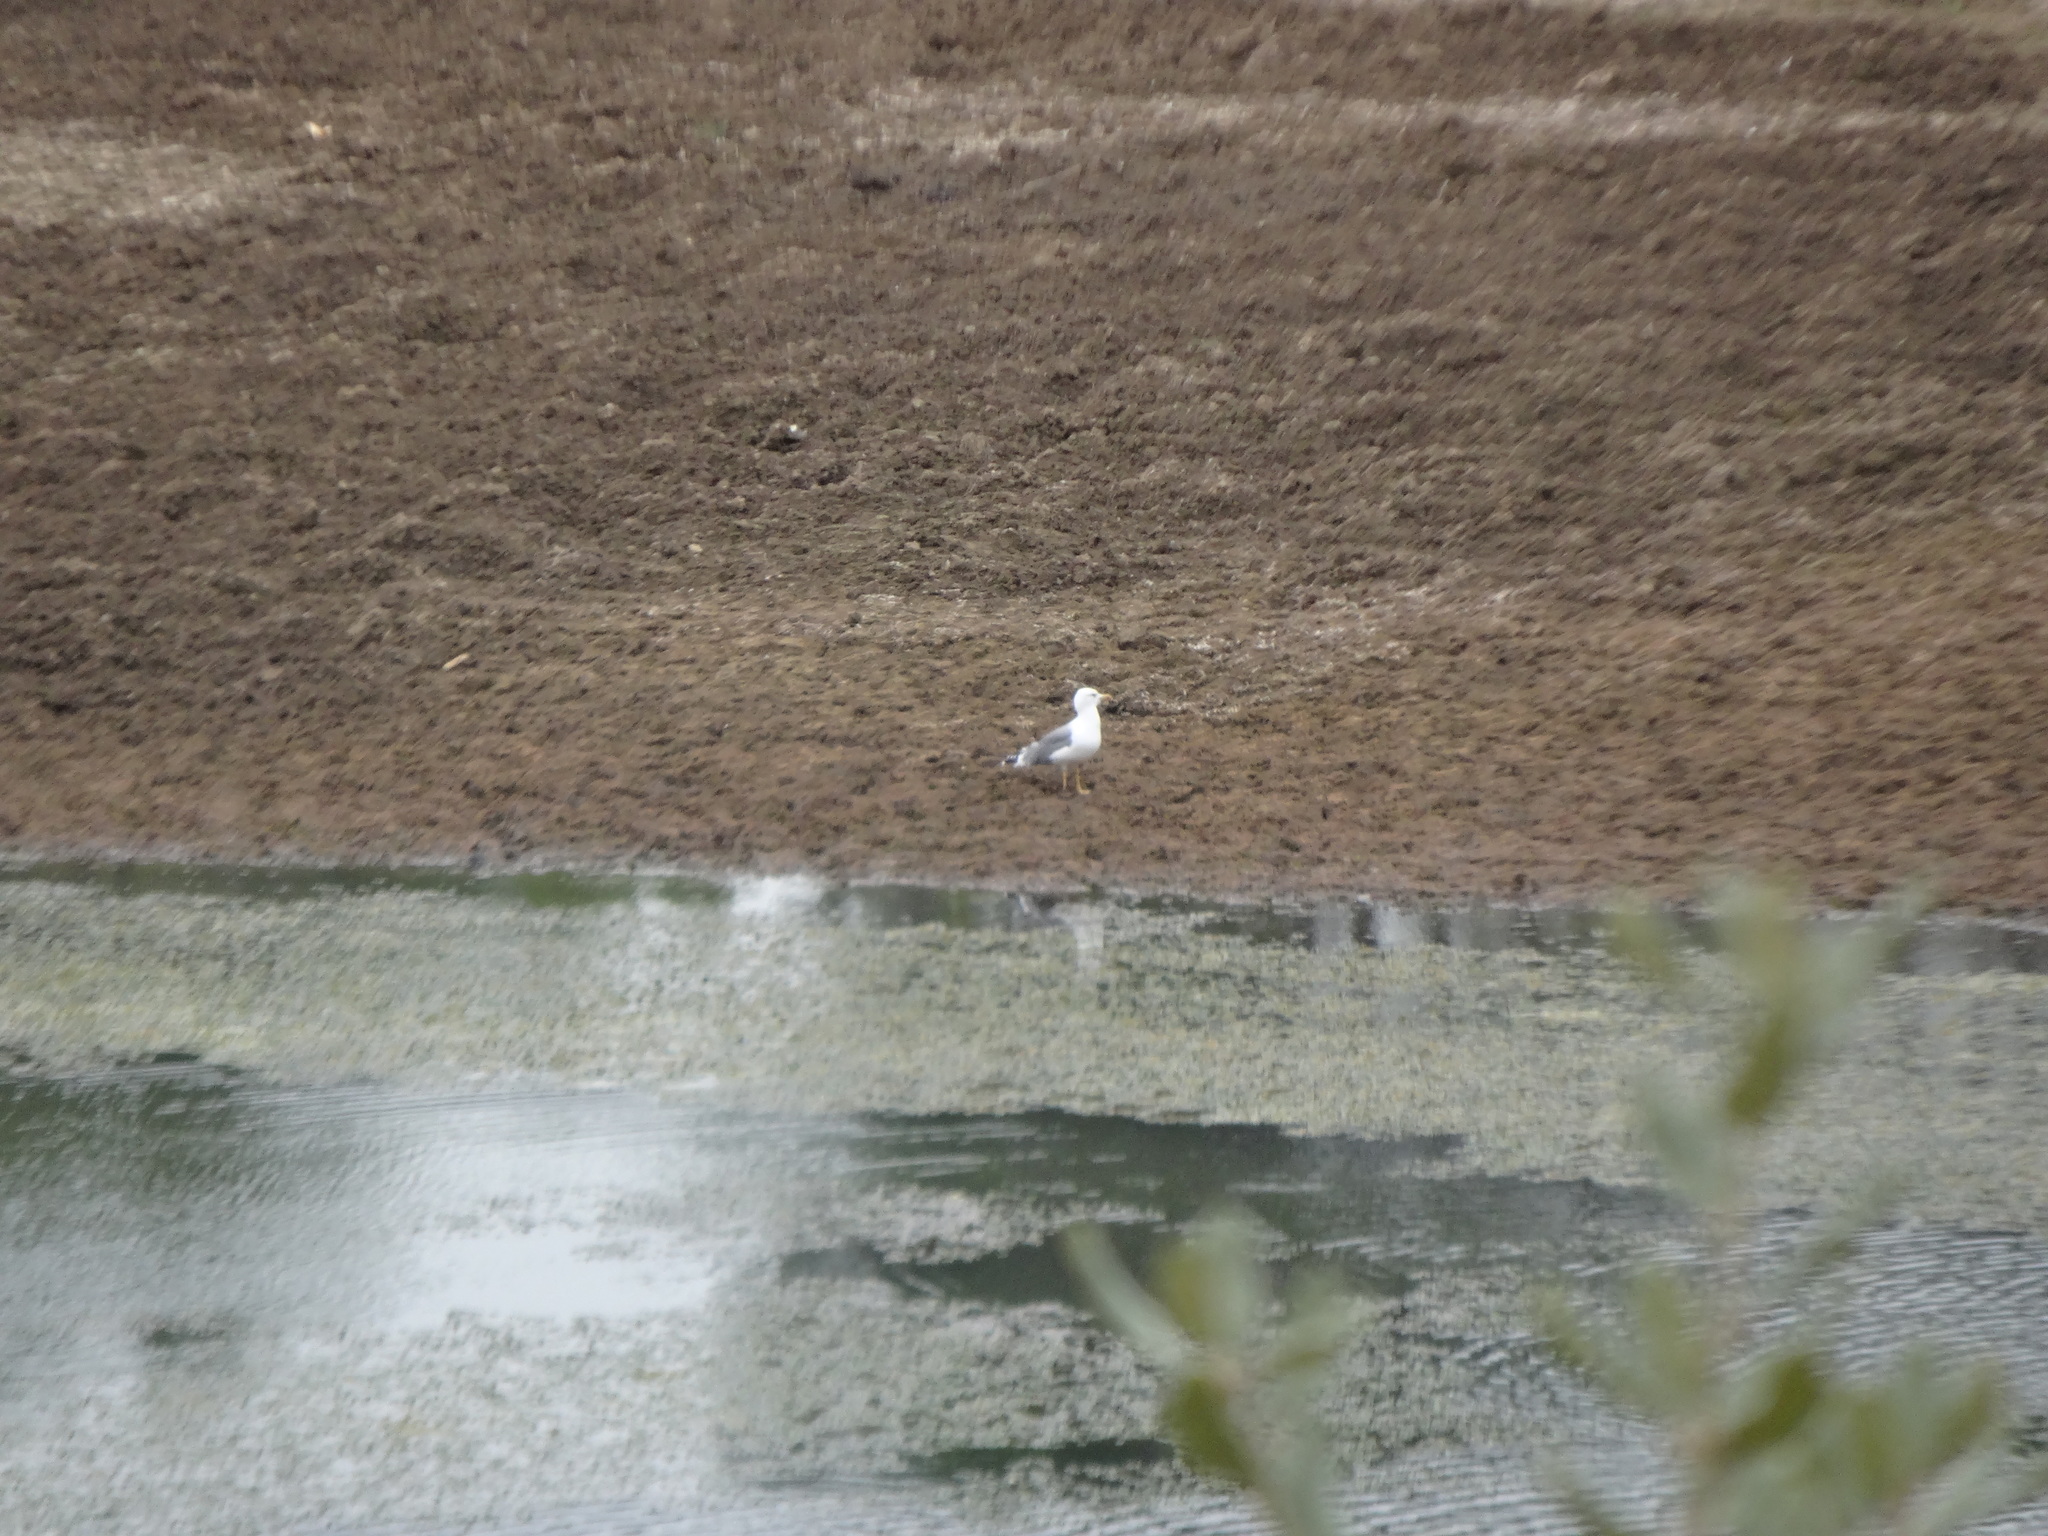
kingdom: Animalia
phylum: Chordata
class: Aves
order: Charadriiformes
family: Laridae
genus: Larus
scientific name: Larus michahellis
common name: Yellow-legged gull
